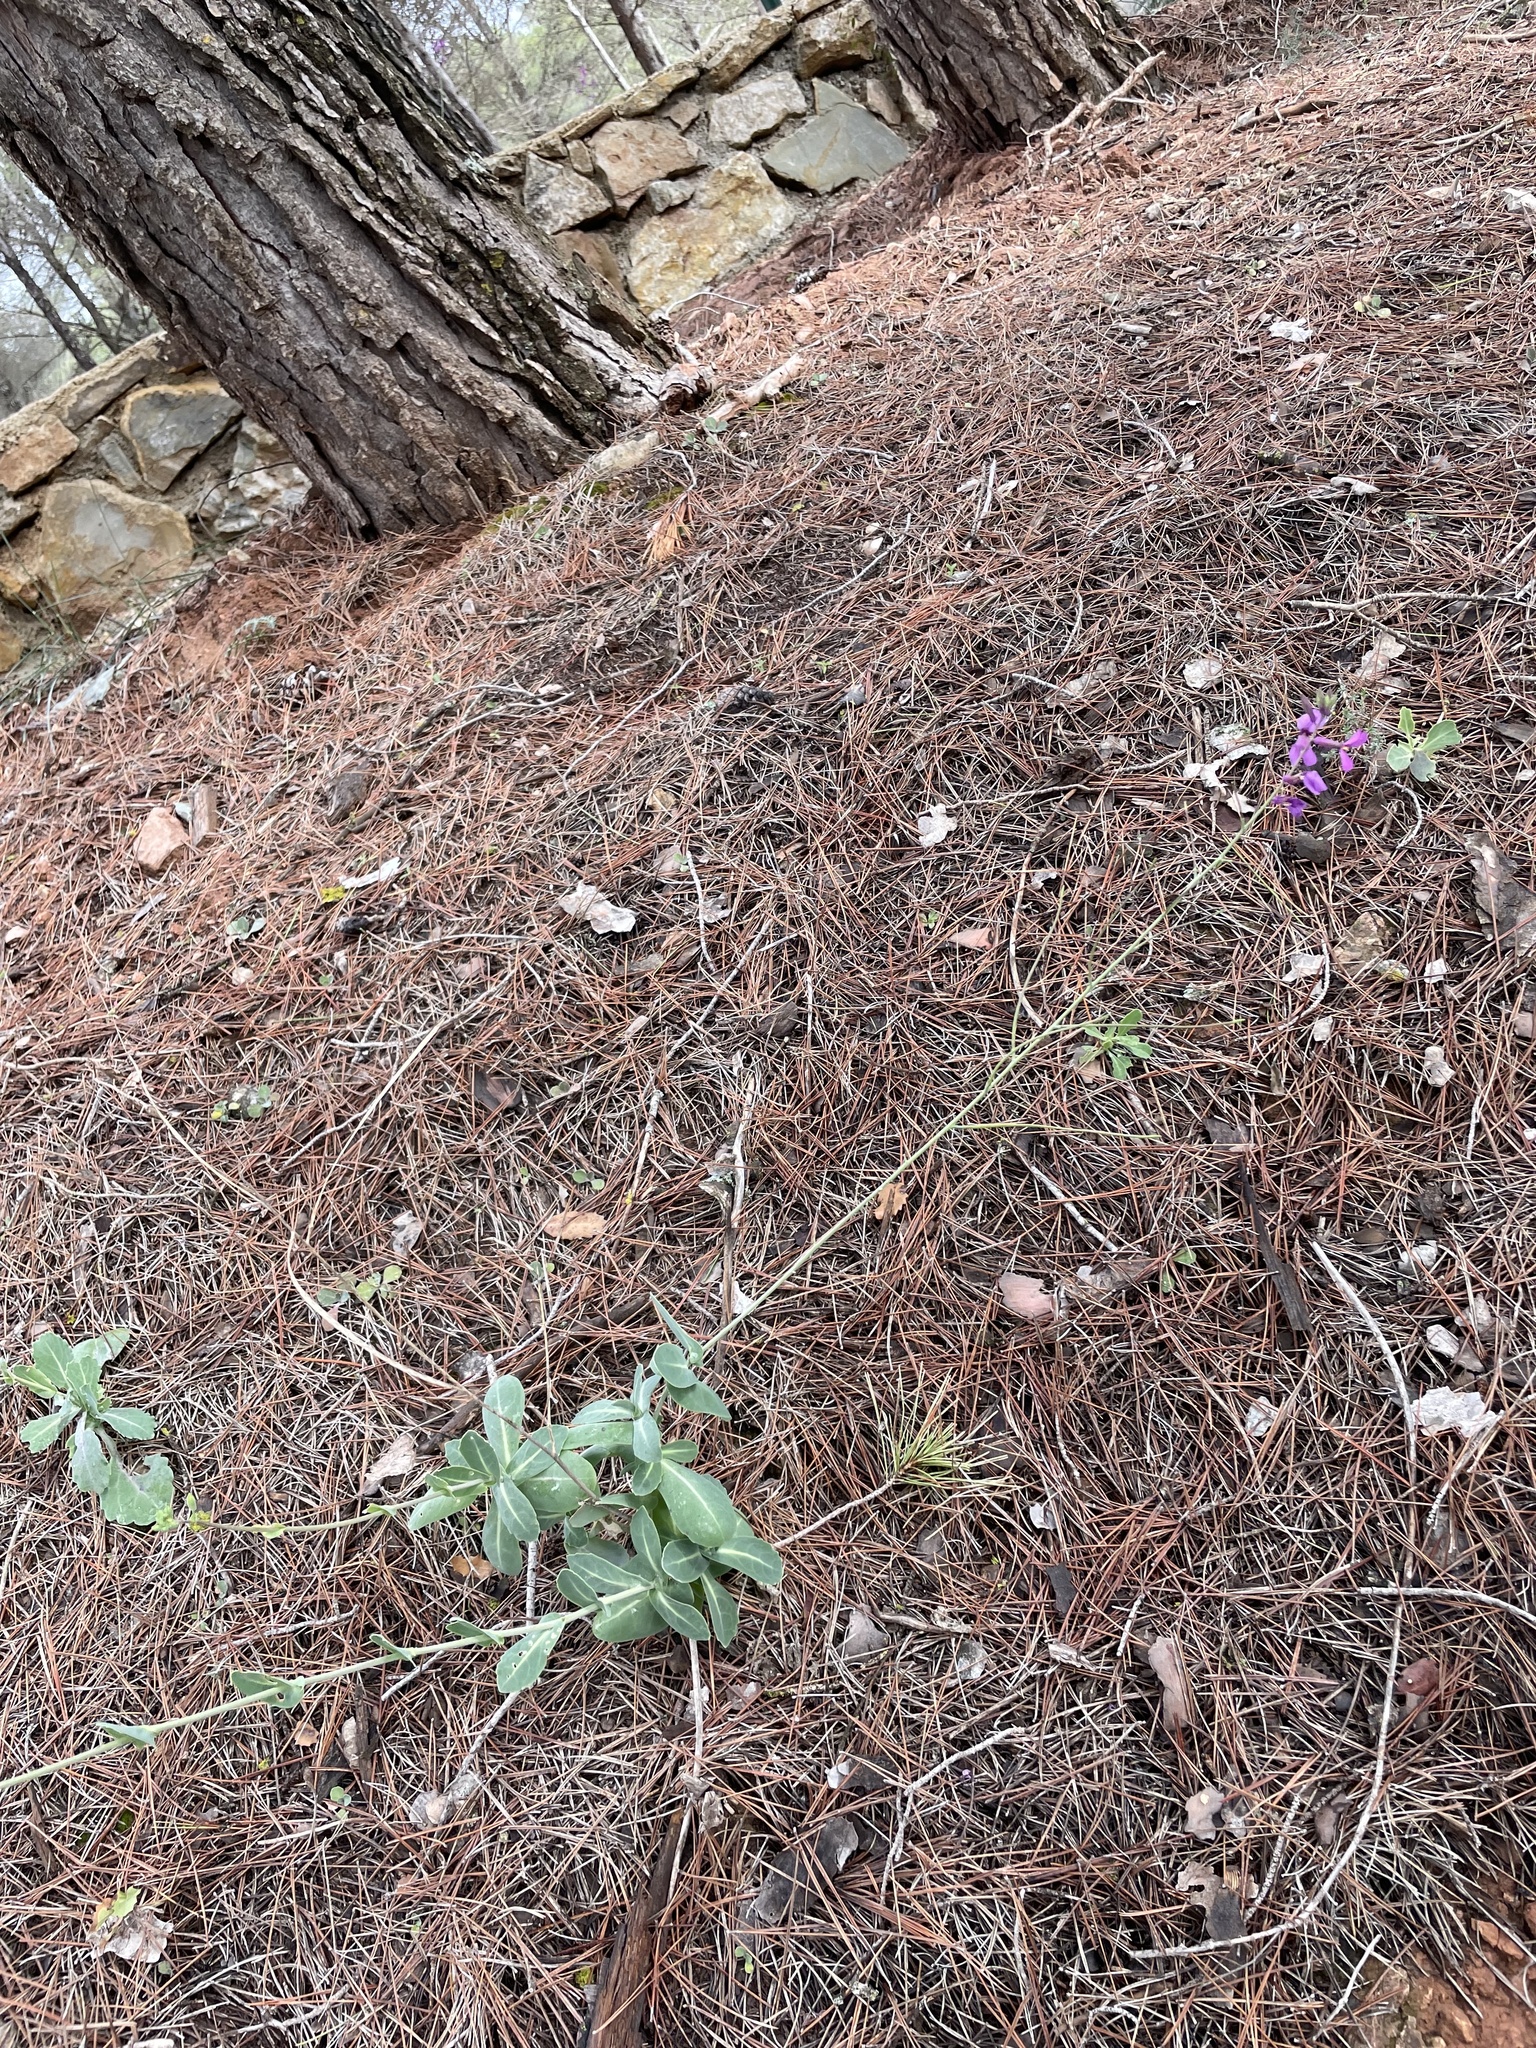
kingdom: Plantae
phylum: Tracheophyta
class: Magnoliopsida
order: Brassicales
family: Brassicaceae
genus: Moricandia
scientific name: Moricandia moricandioides
